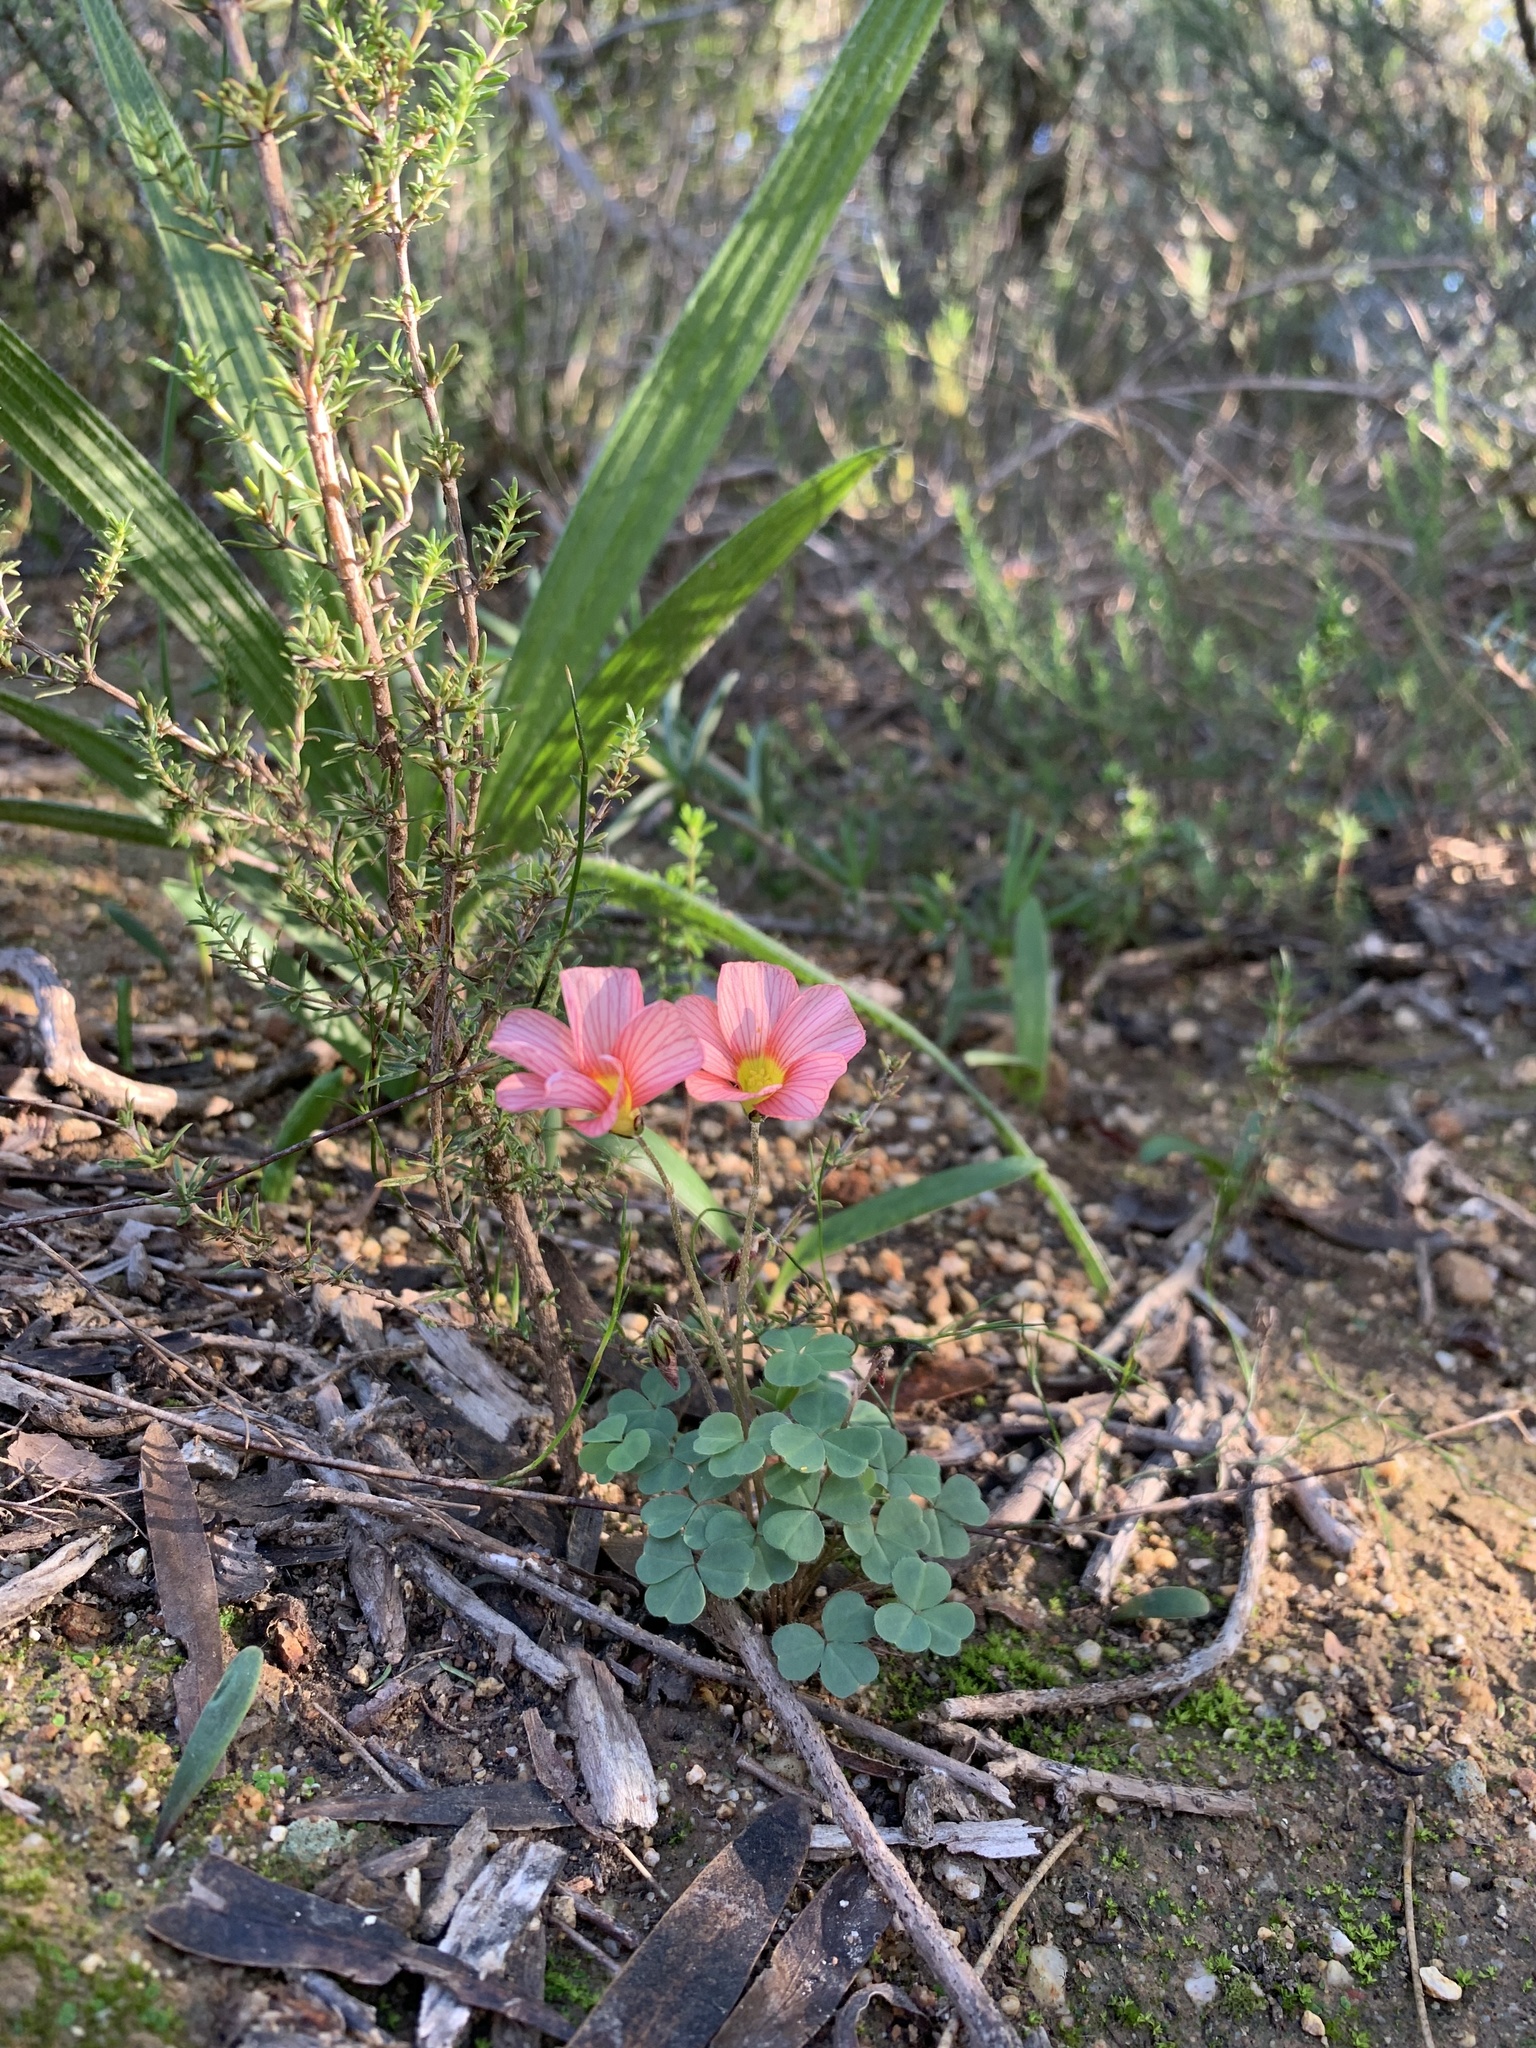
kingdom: Plantae
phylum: Tracheophyta
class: Magnoliopsida
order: Oxalidales
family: Oxalidaceae
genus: Oxalis
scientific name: Oxalis obtusa
